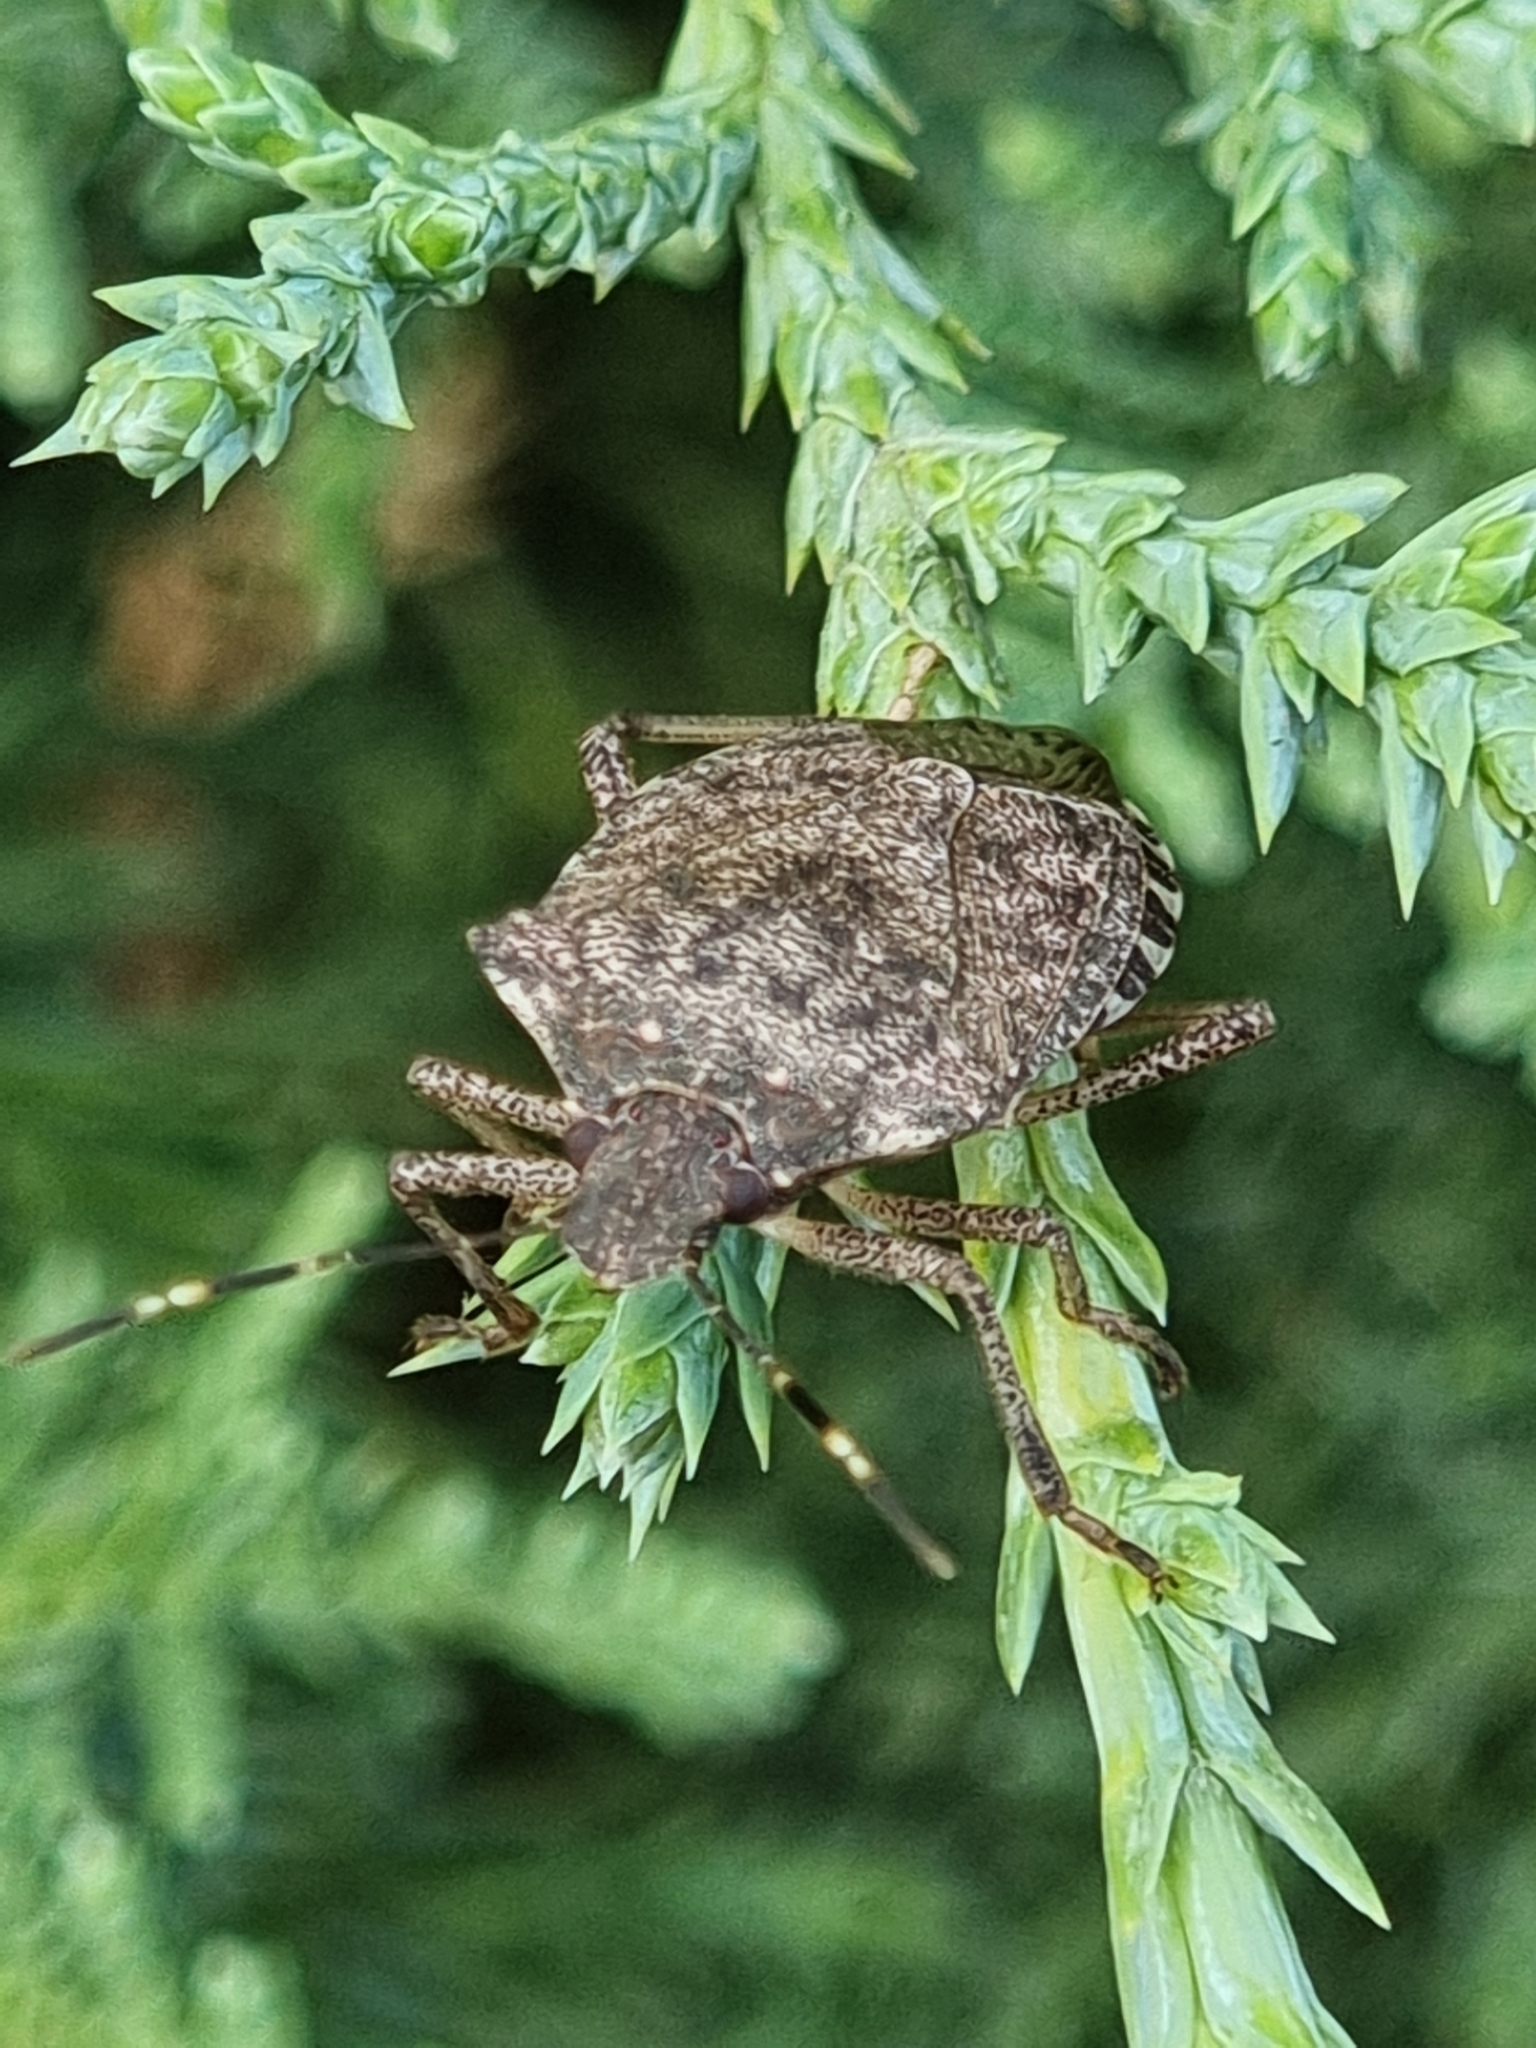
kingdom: Animalia
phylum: Arthropoda
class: Insecta
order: Hemiptera
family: Pentatomidae
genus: Halyomorpha
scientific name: Halyomorpha halys
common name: Brown marmorated stink bug
